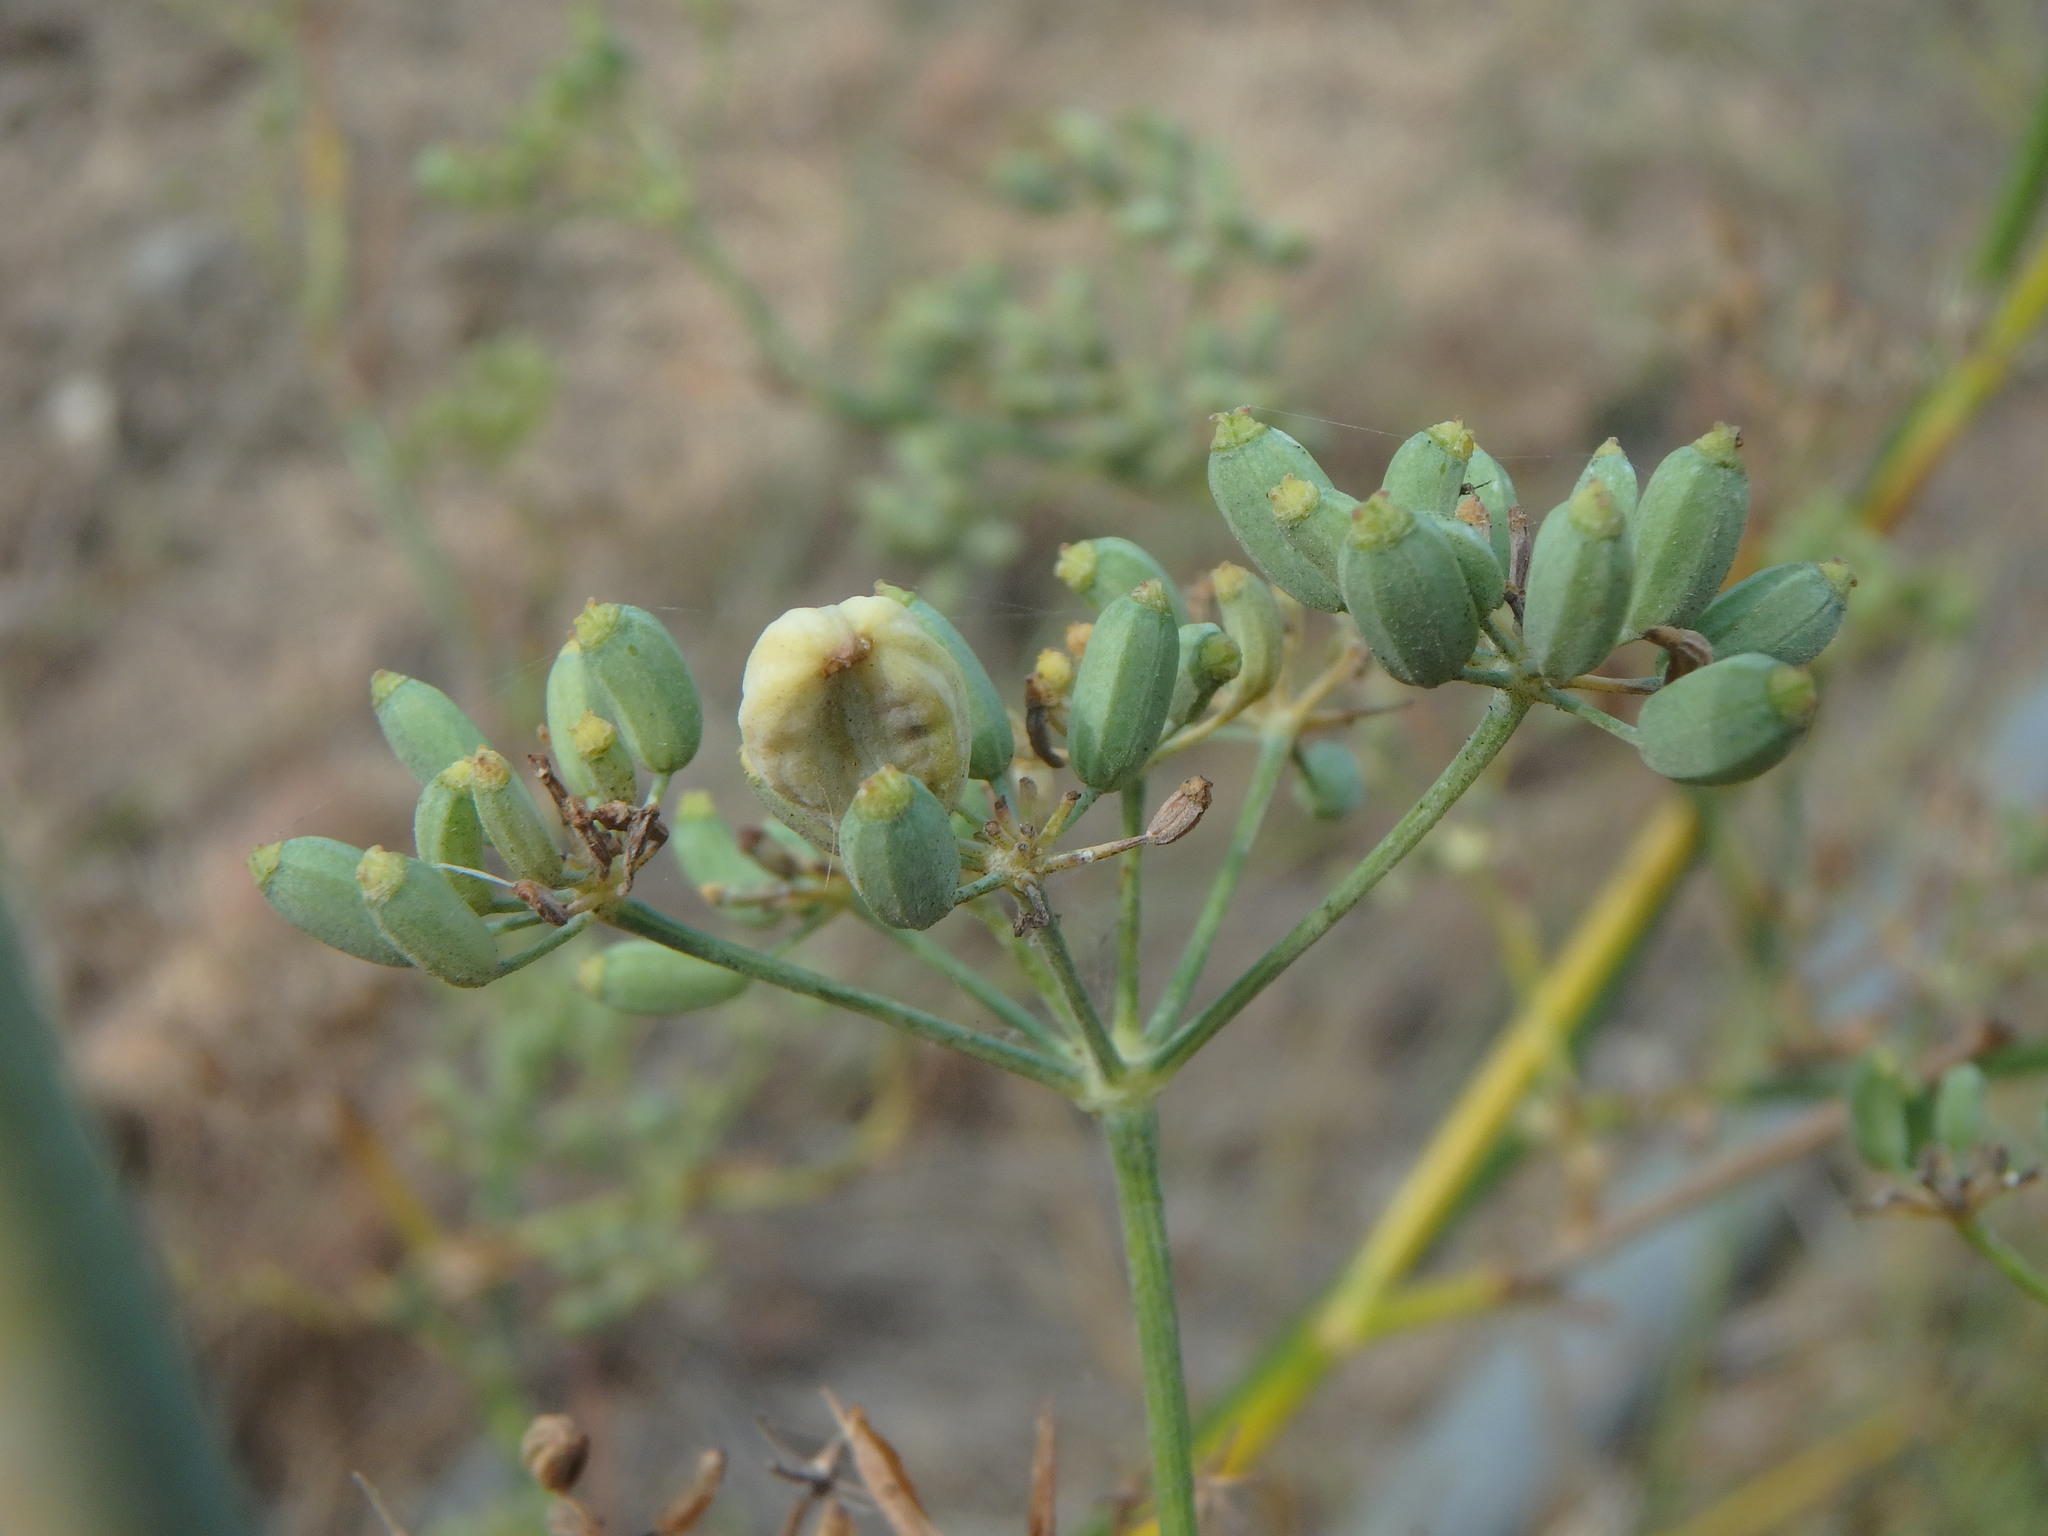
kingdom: Plantae
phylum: Tracheophyta
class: Magnoliopsida
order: Apiales
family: Apiaceae
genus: Foeniculum
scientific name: Foeniculum vulgare
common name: Fennel
